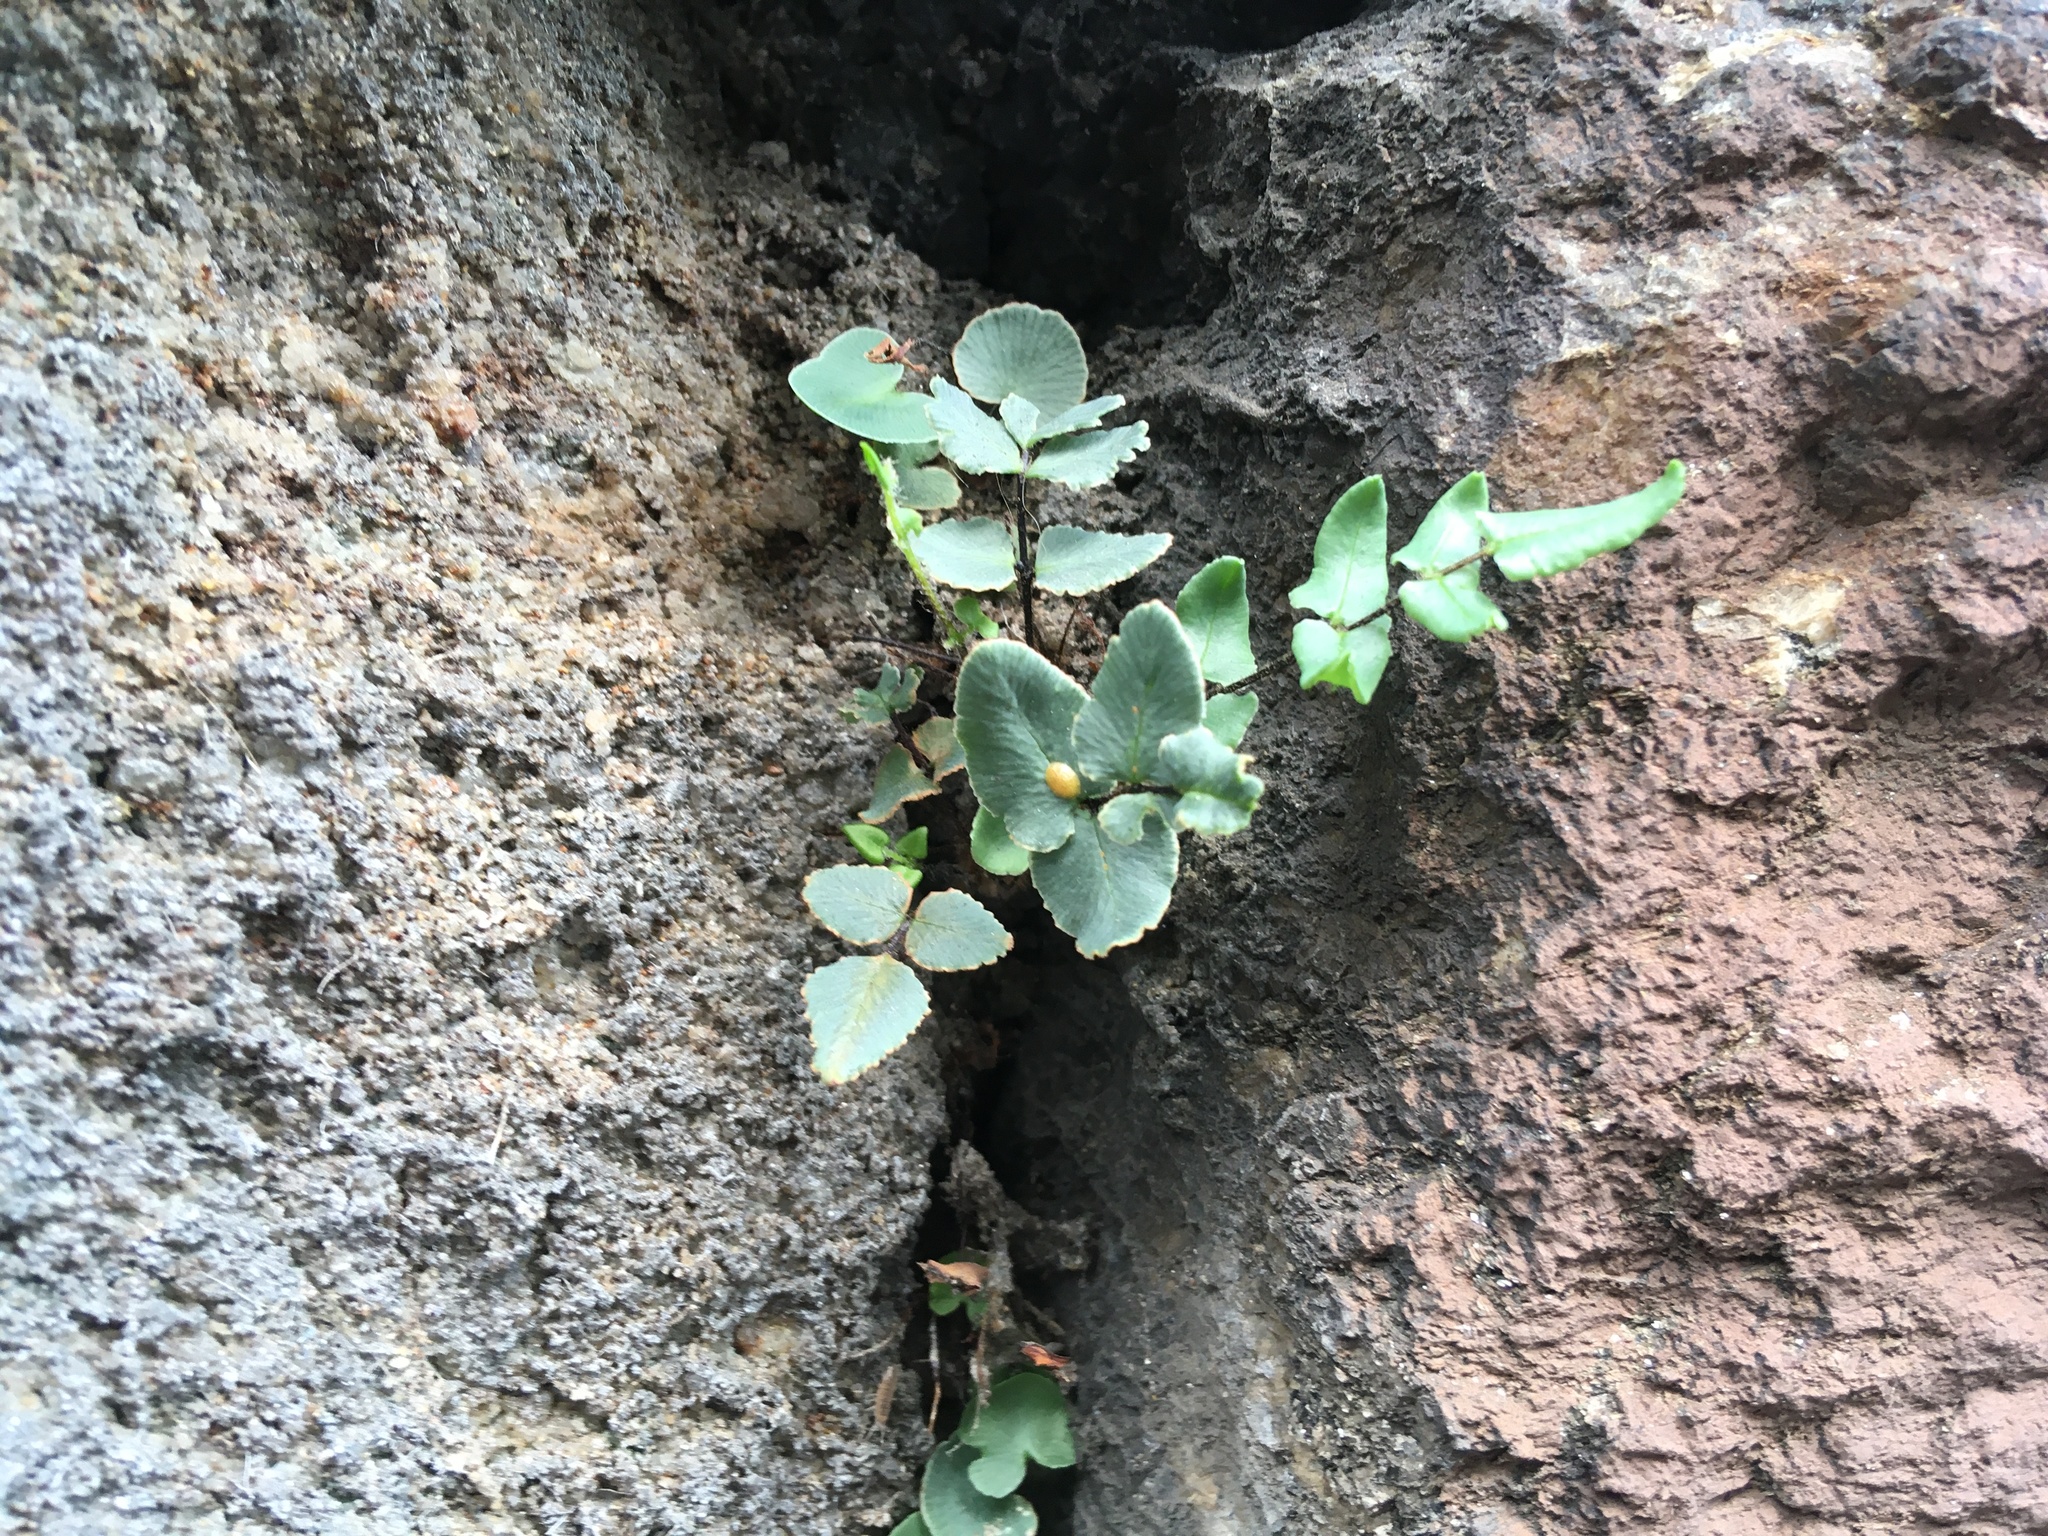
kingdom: Plantae
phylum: Tracheophyta
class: Polypodiopsida
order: Polypodiales
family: Pteridaceae
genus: Pellaea
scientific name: Pellaea atropurpurea
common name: Hairy cliffbrake
